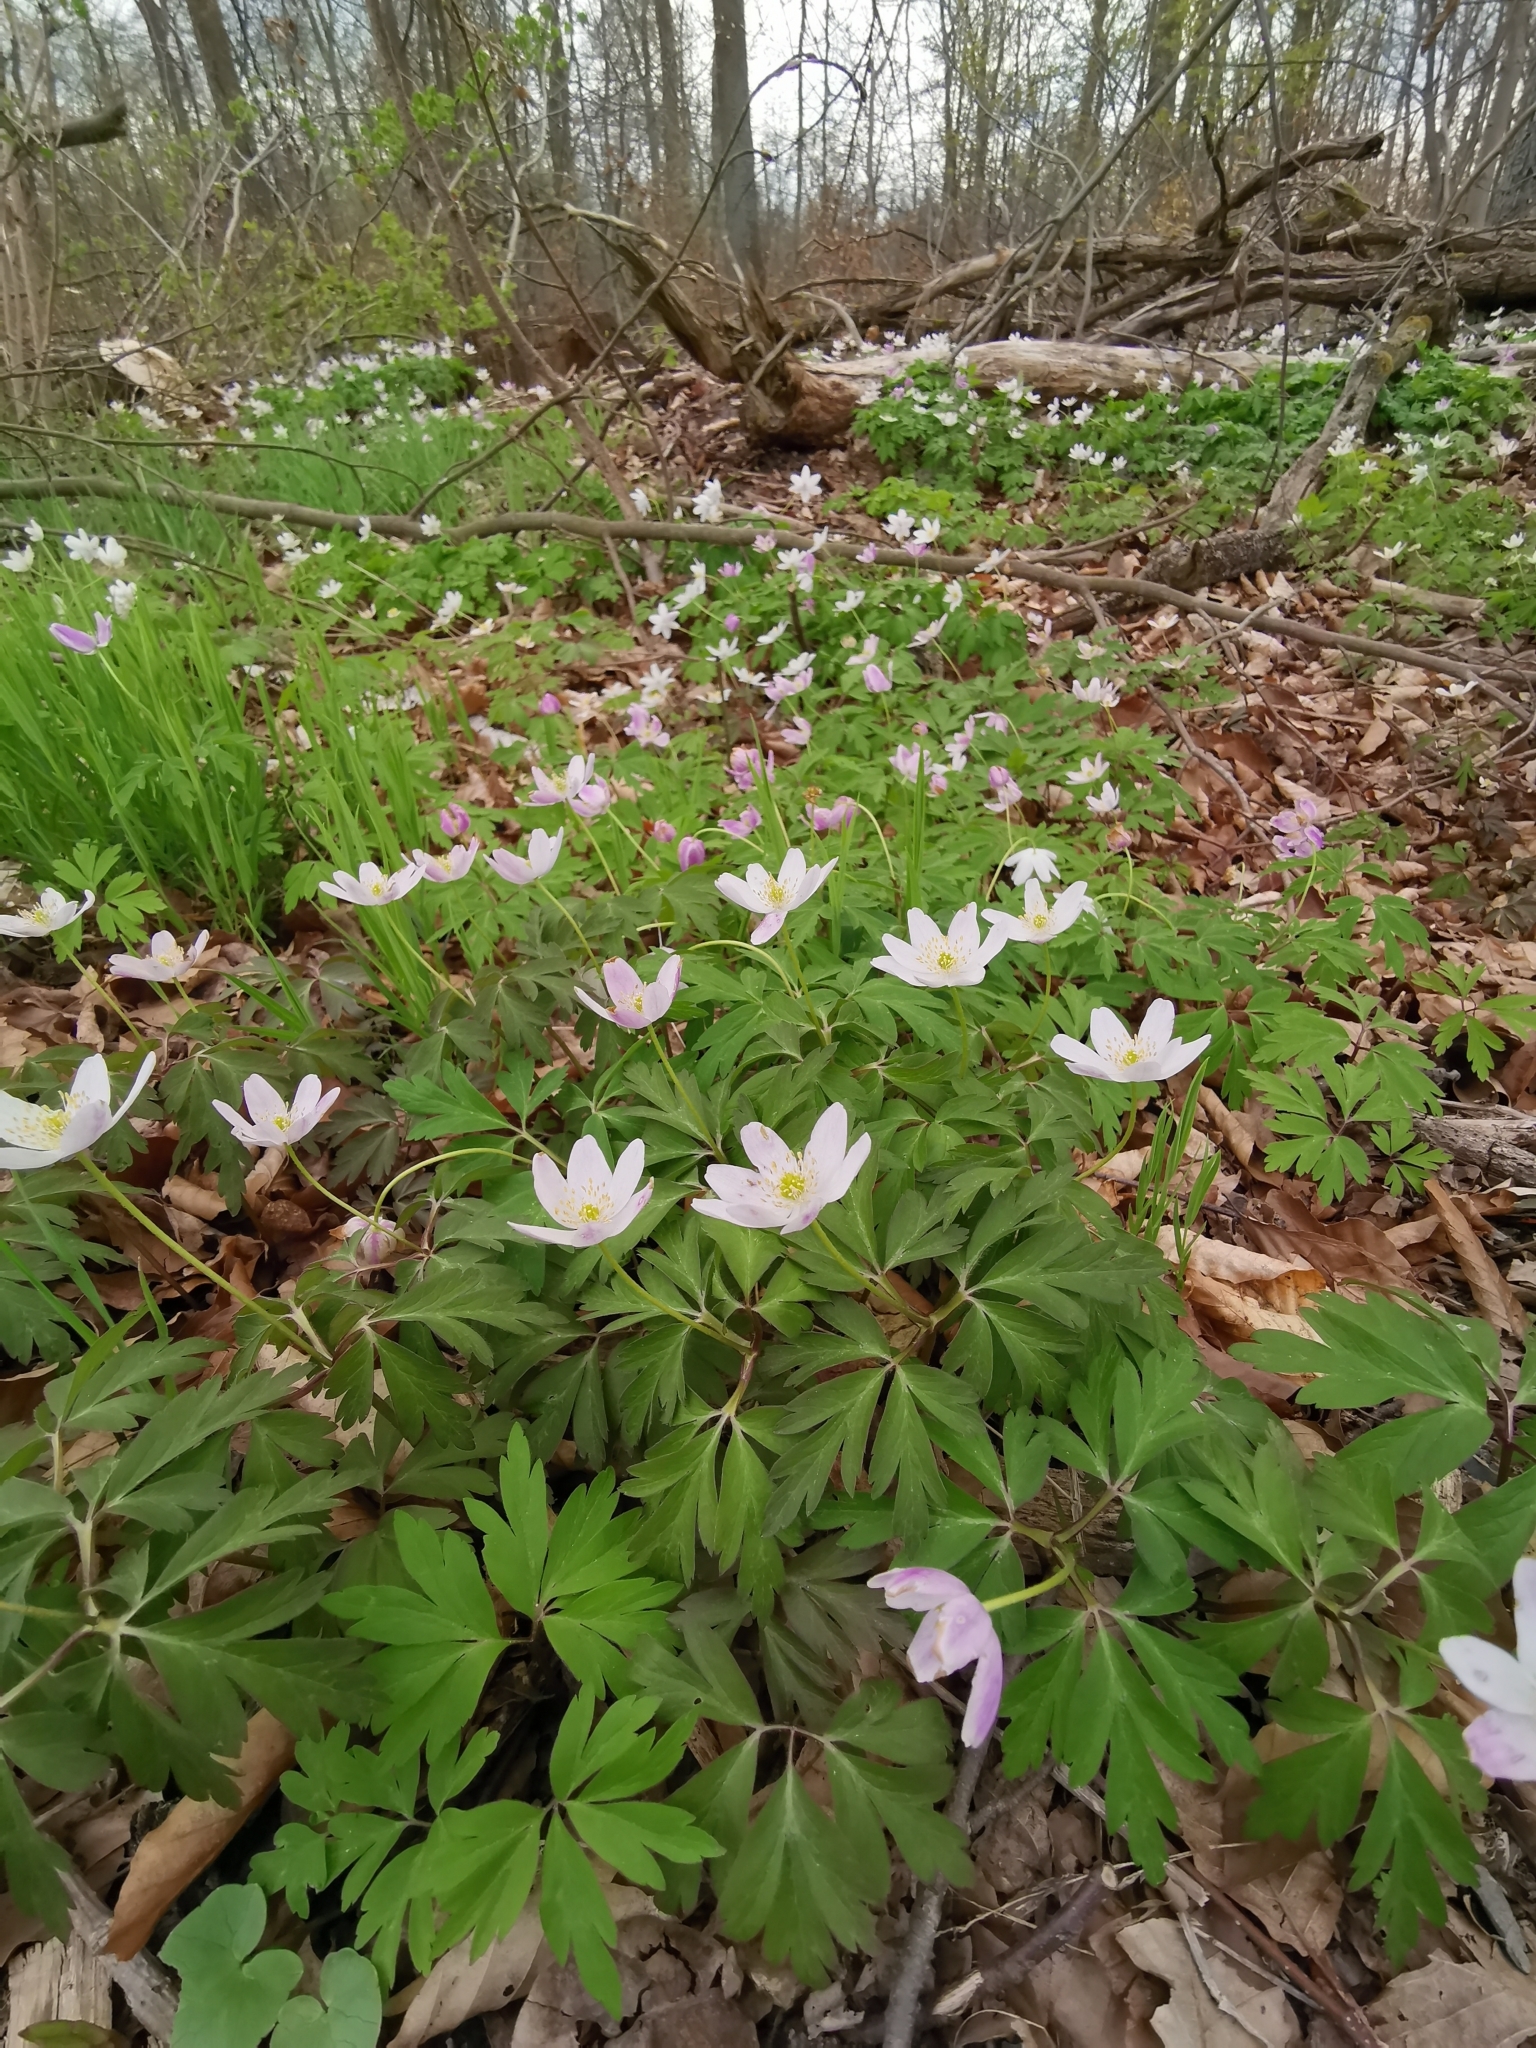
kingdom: Plantae
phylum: Tracheophyta
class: Magnoliopsida
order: Ranunculales
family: Ranunculaceae
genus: Anemone
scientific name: Anemone nemorosa
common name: Wood anemone
